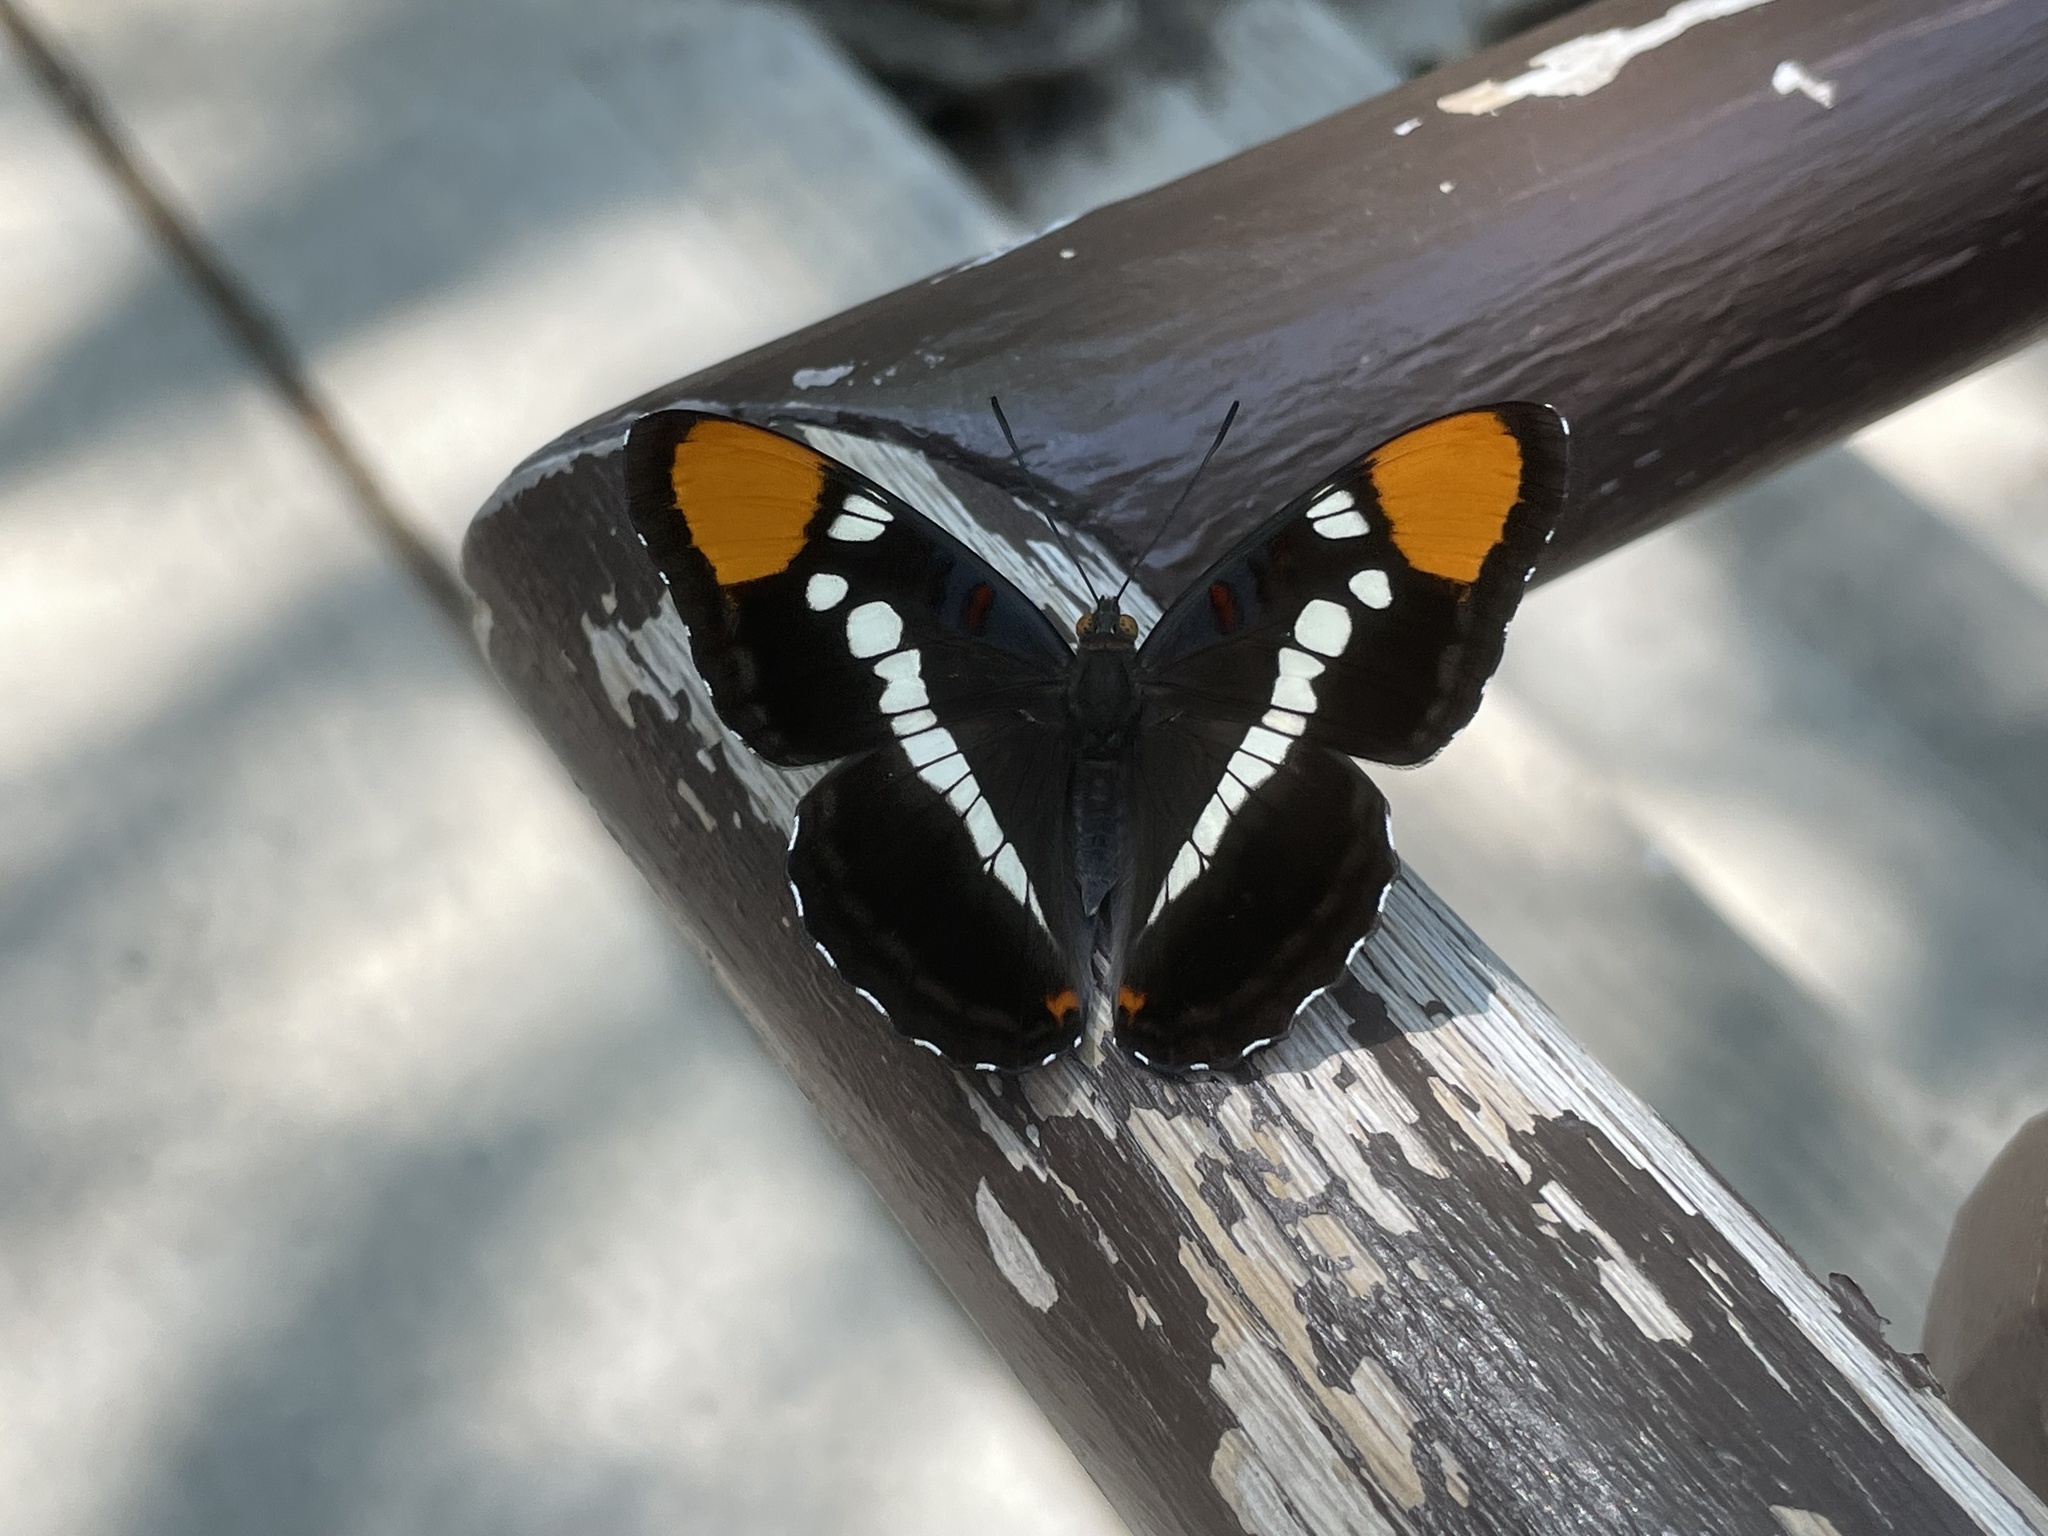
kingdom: Animalia
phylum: Arthropoda
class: Insecta
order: Lepidoptera
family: Nymphalidae
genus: Limenitis
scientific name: Limenitis bredowii
